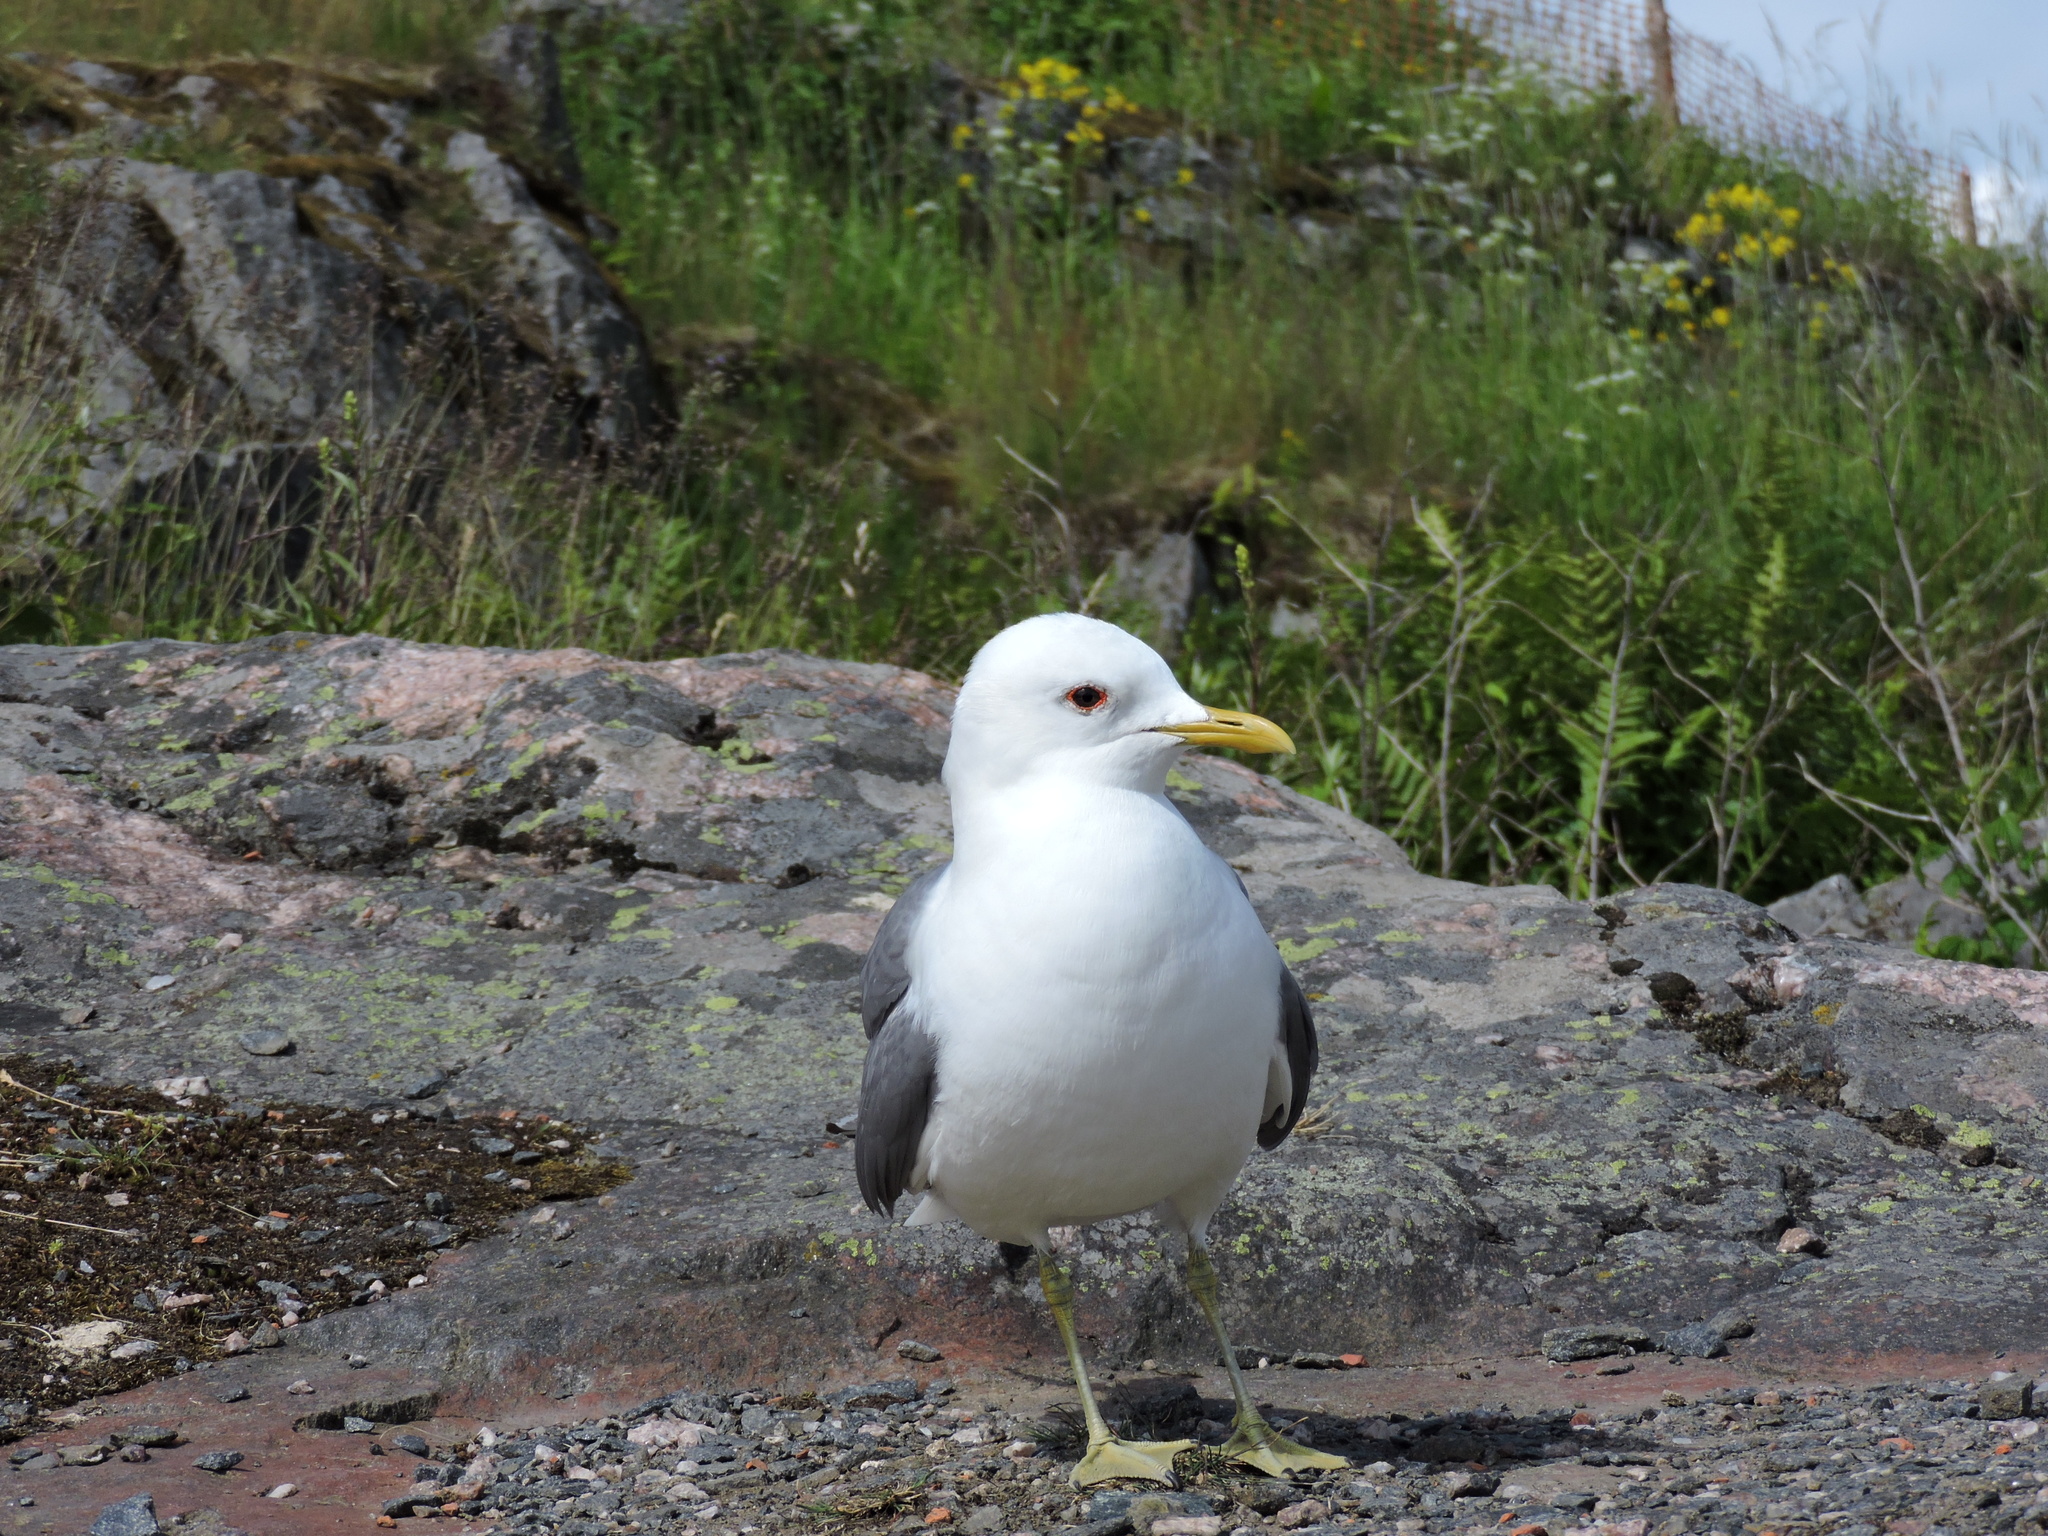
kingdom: Animalia
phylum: Chordata
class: Aves
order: Charadriiformes
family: Laridae
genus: Larus
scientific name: Larus canus
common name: Mew gull
